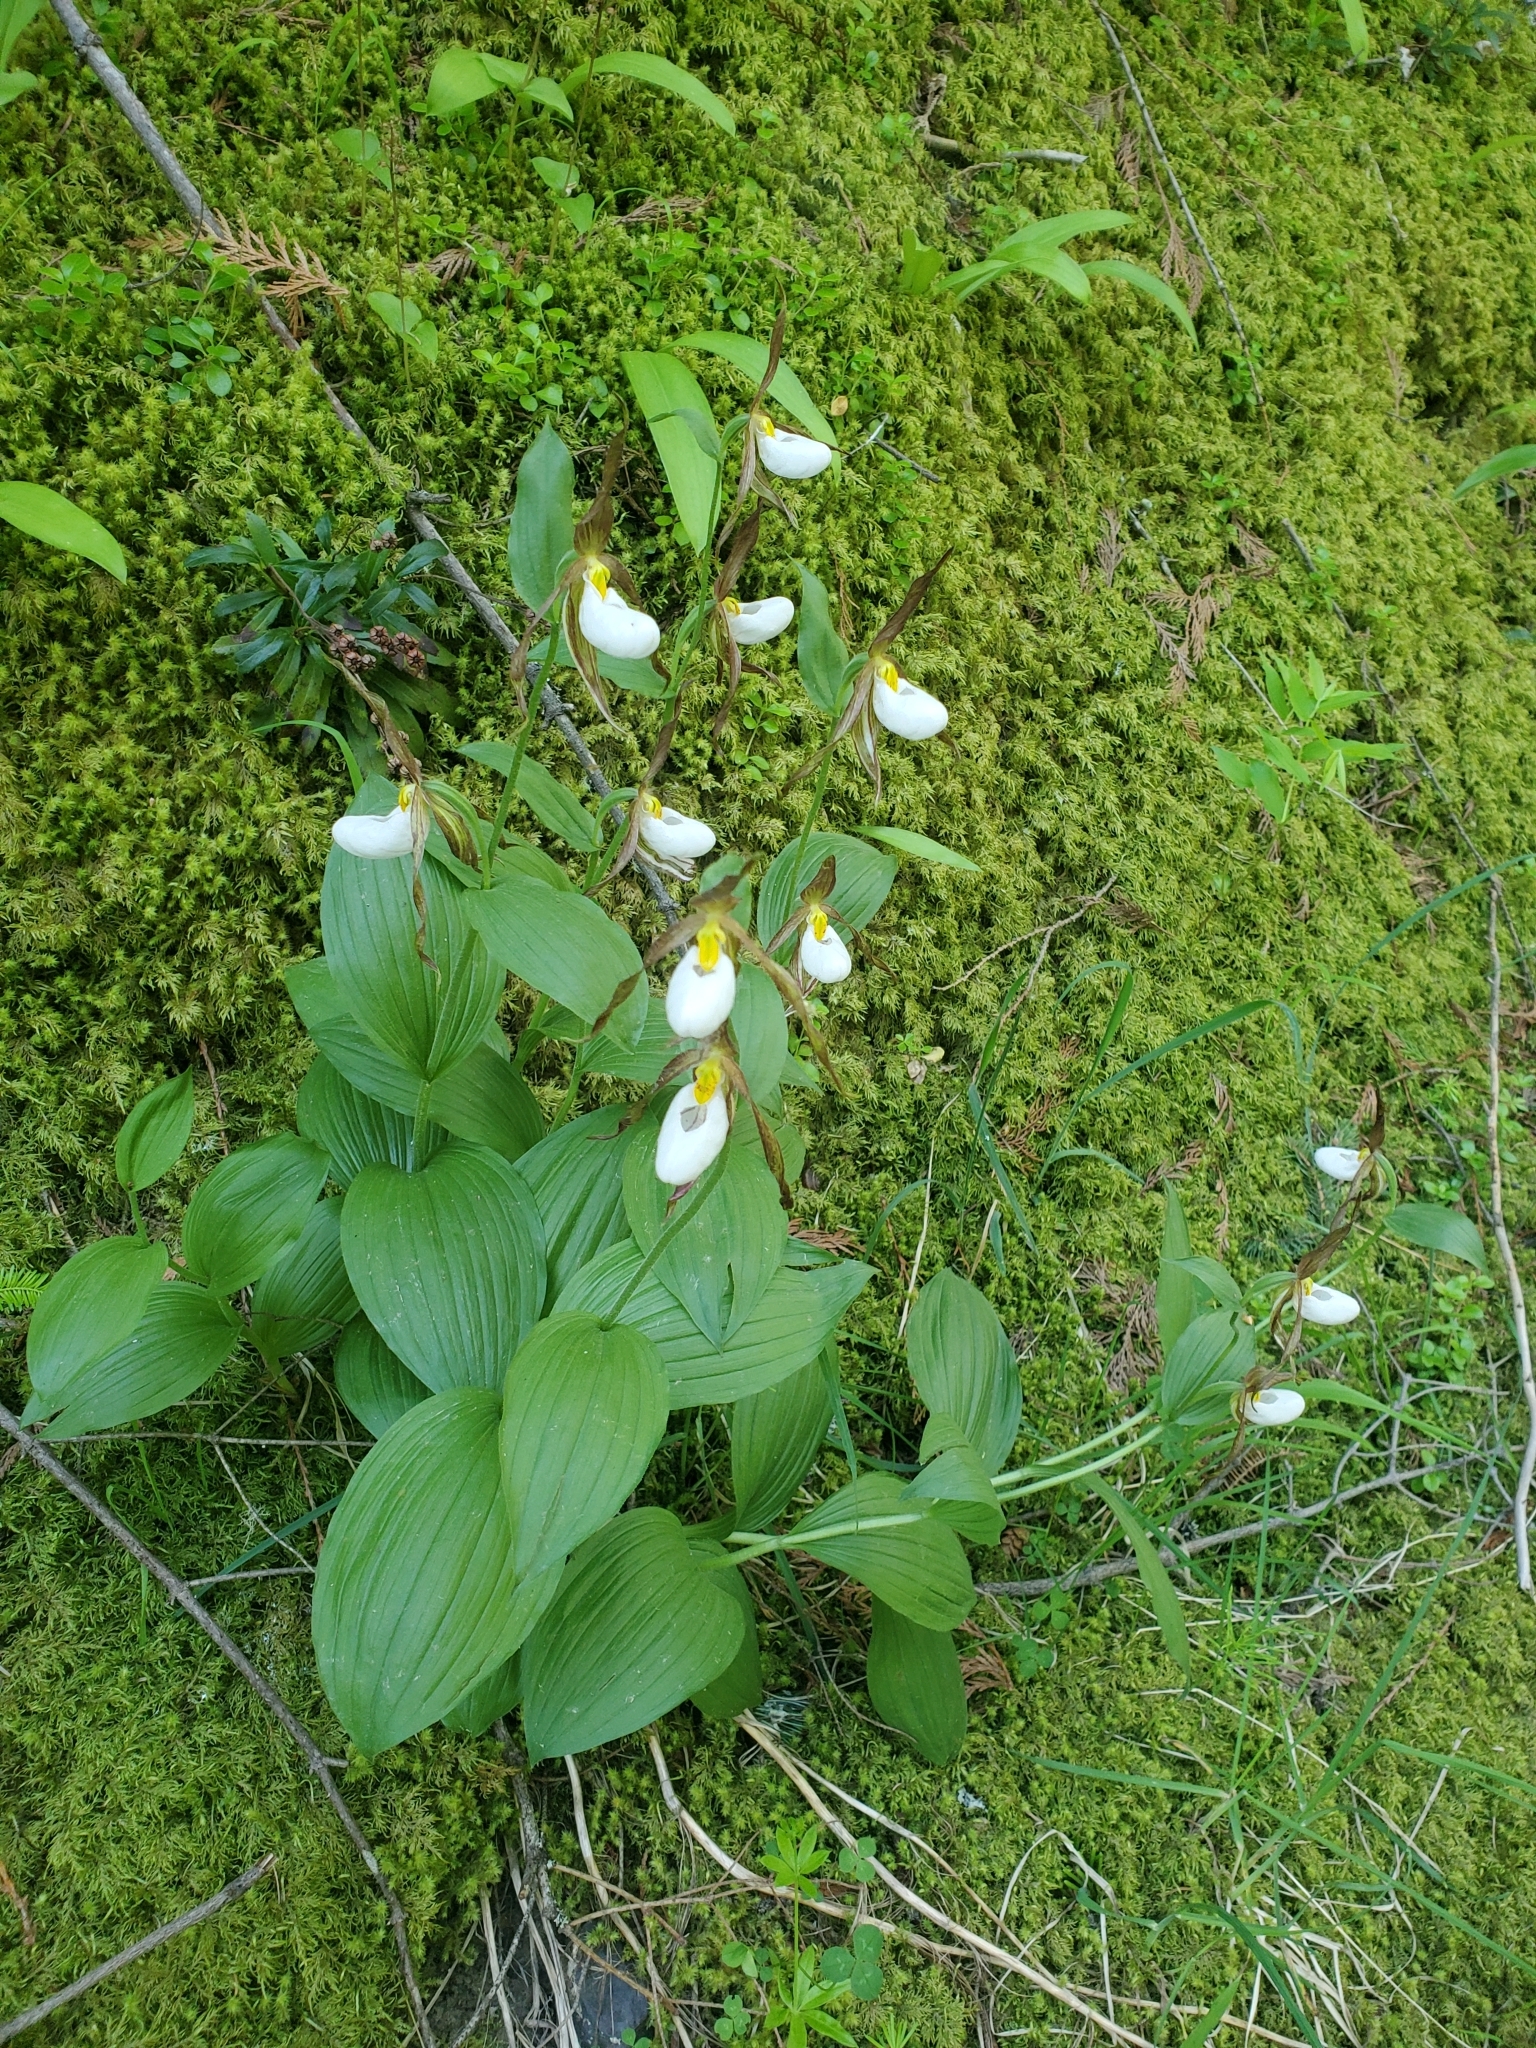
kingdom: Plantae
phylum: Tracheophyta
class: Liliopsida
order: Asparagales
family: Orchidaceae
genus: Cypripedium
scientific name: Cypripedium montanum
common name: Mountain lady's-slipper
